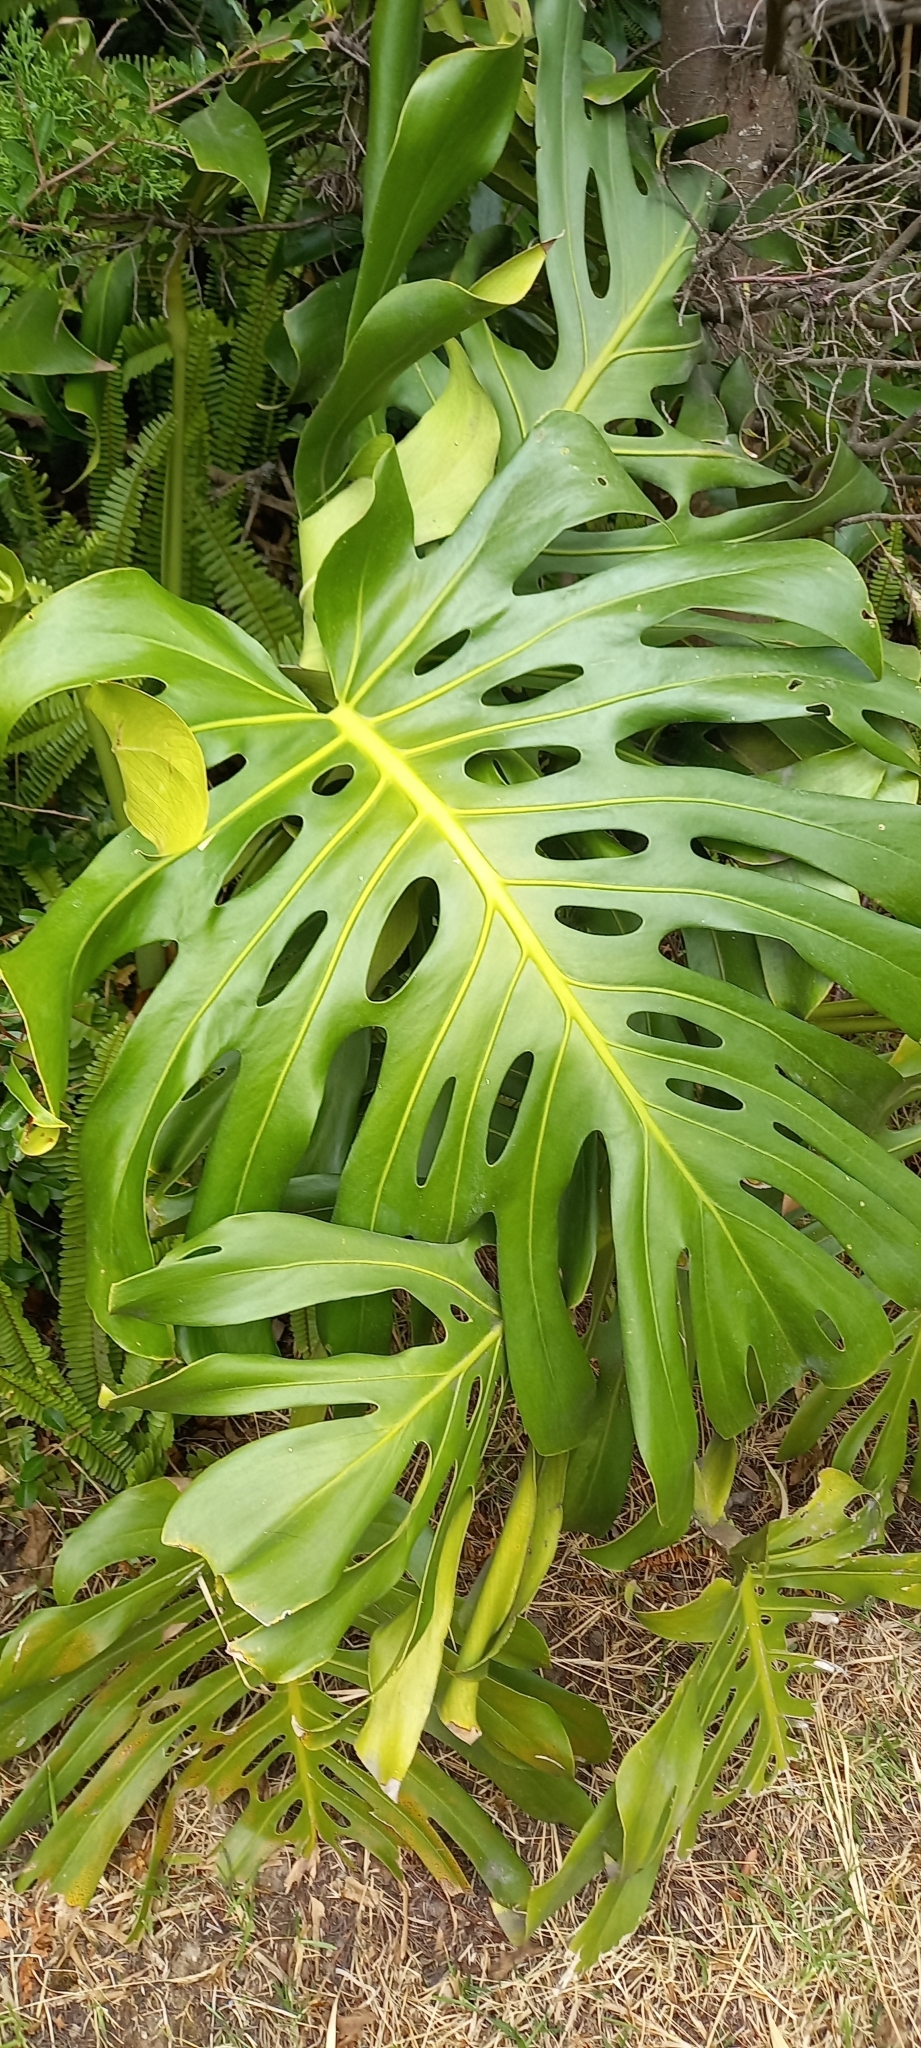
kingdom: Plantae
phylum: Tracheophyta
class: Liliopsida
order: Alismatales
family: Araceae
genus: Monstera
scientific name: Monstera deliciosa
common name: Cut-leaf-philodendron
